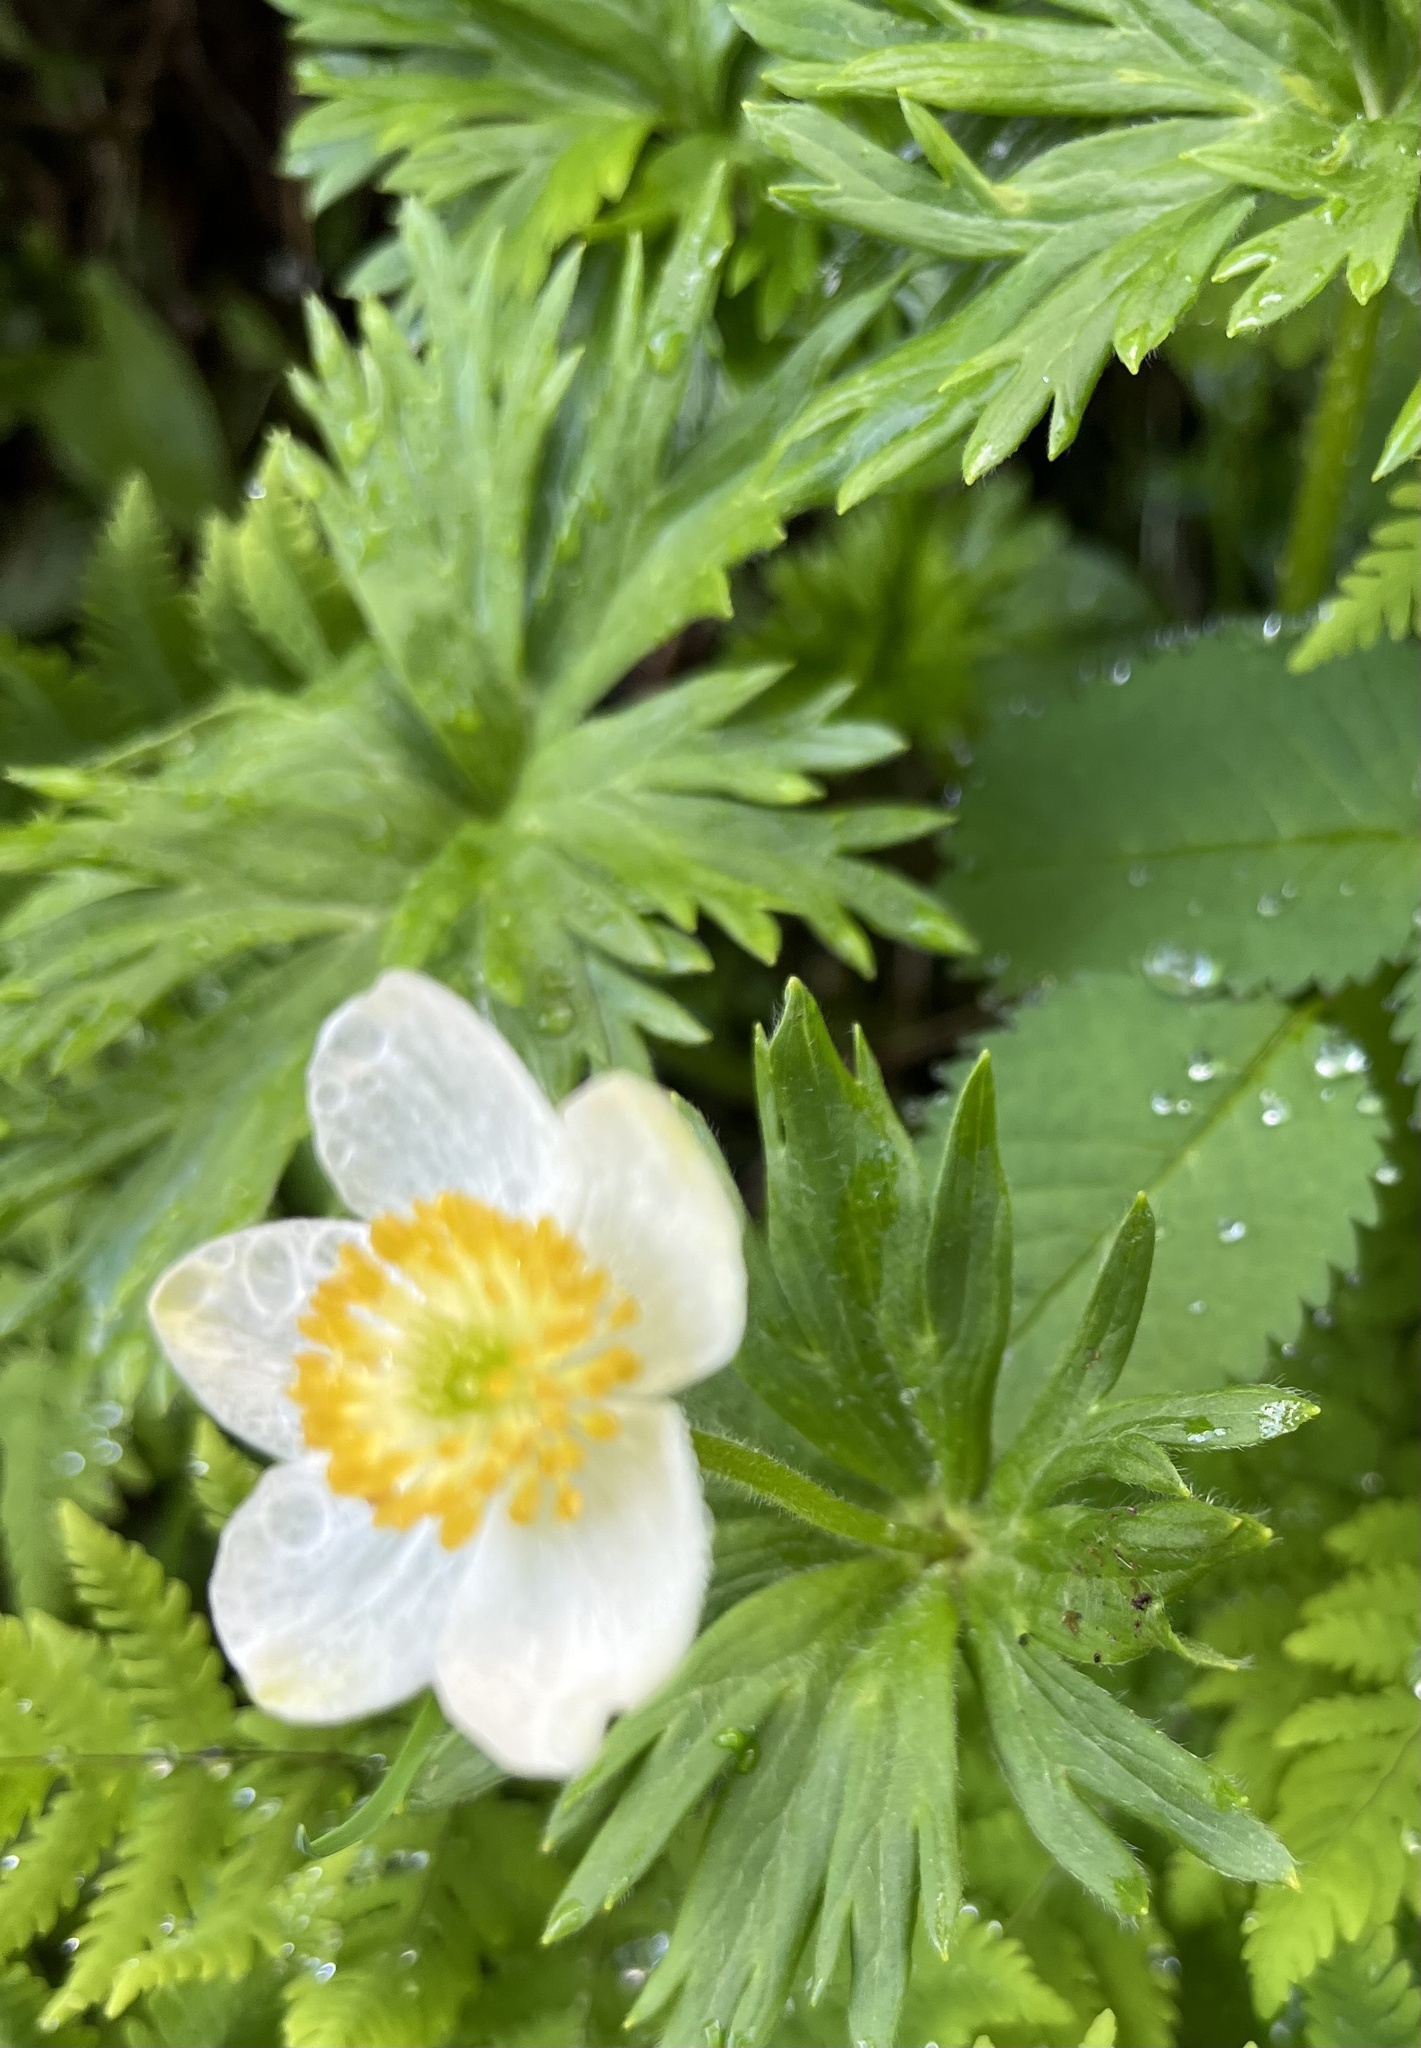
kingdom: Plantae
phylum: Tracheophyta
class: Magnoliopsida
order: Ranunculales
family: Ranunculaceae
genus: Anemonastrum
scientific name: Anemonastrum narcissiflorum
